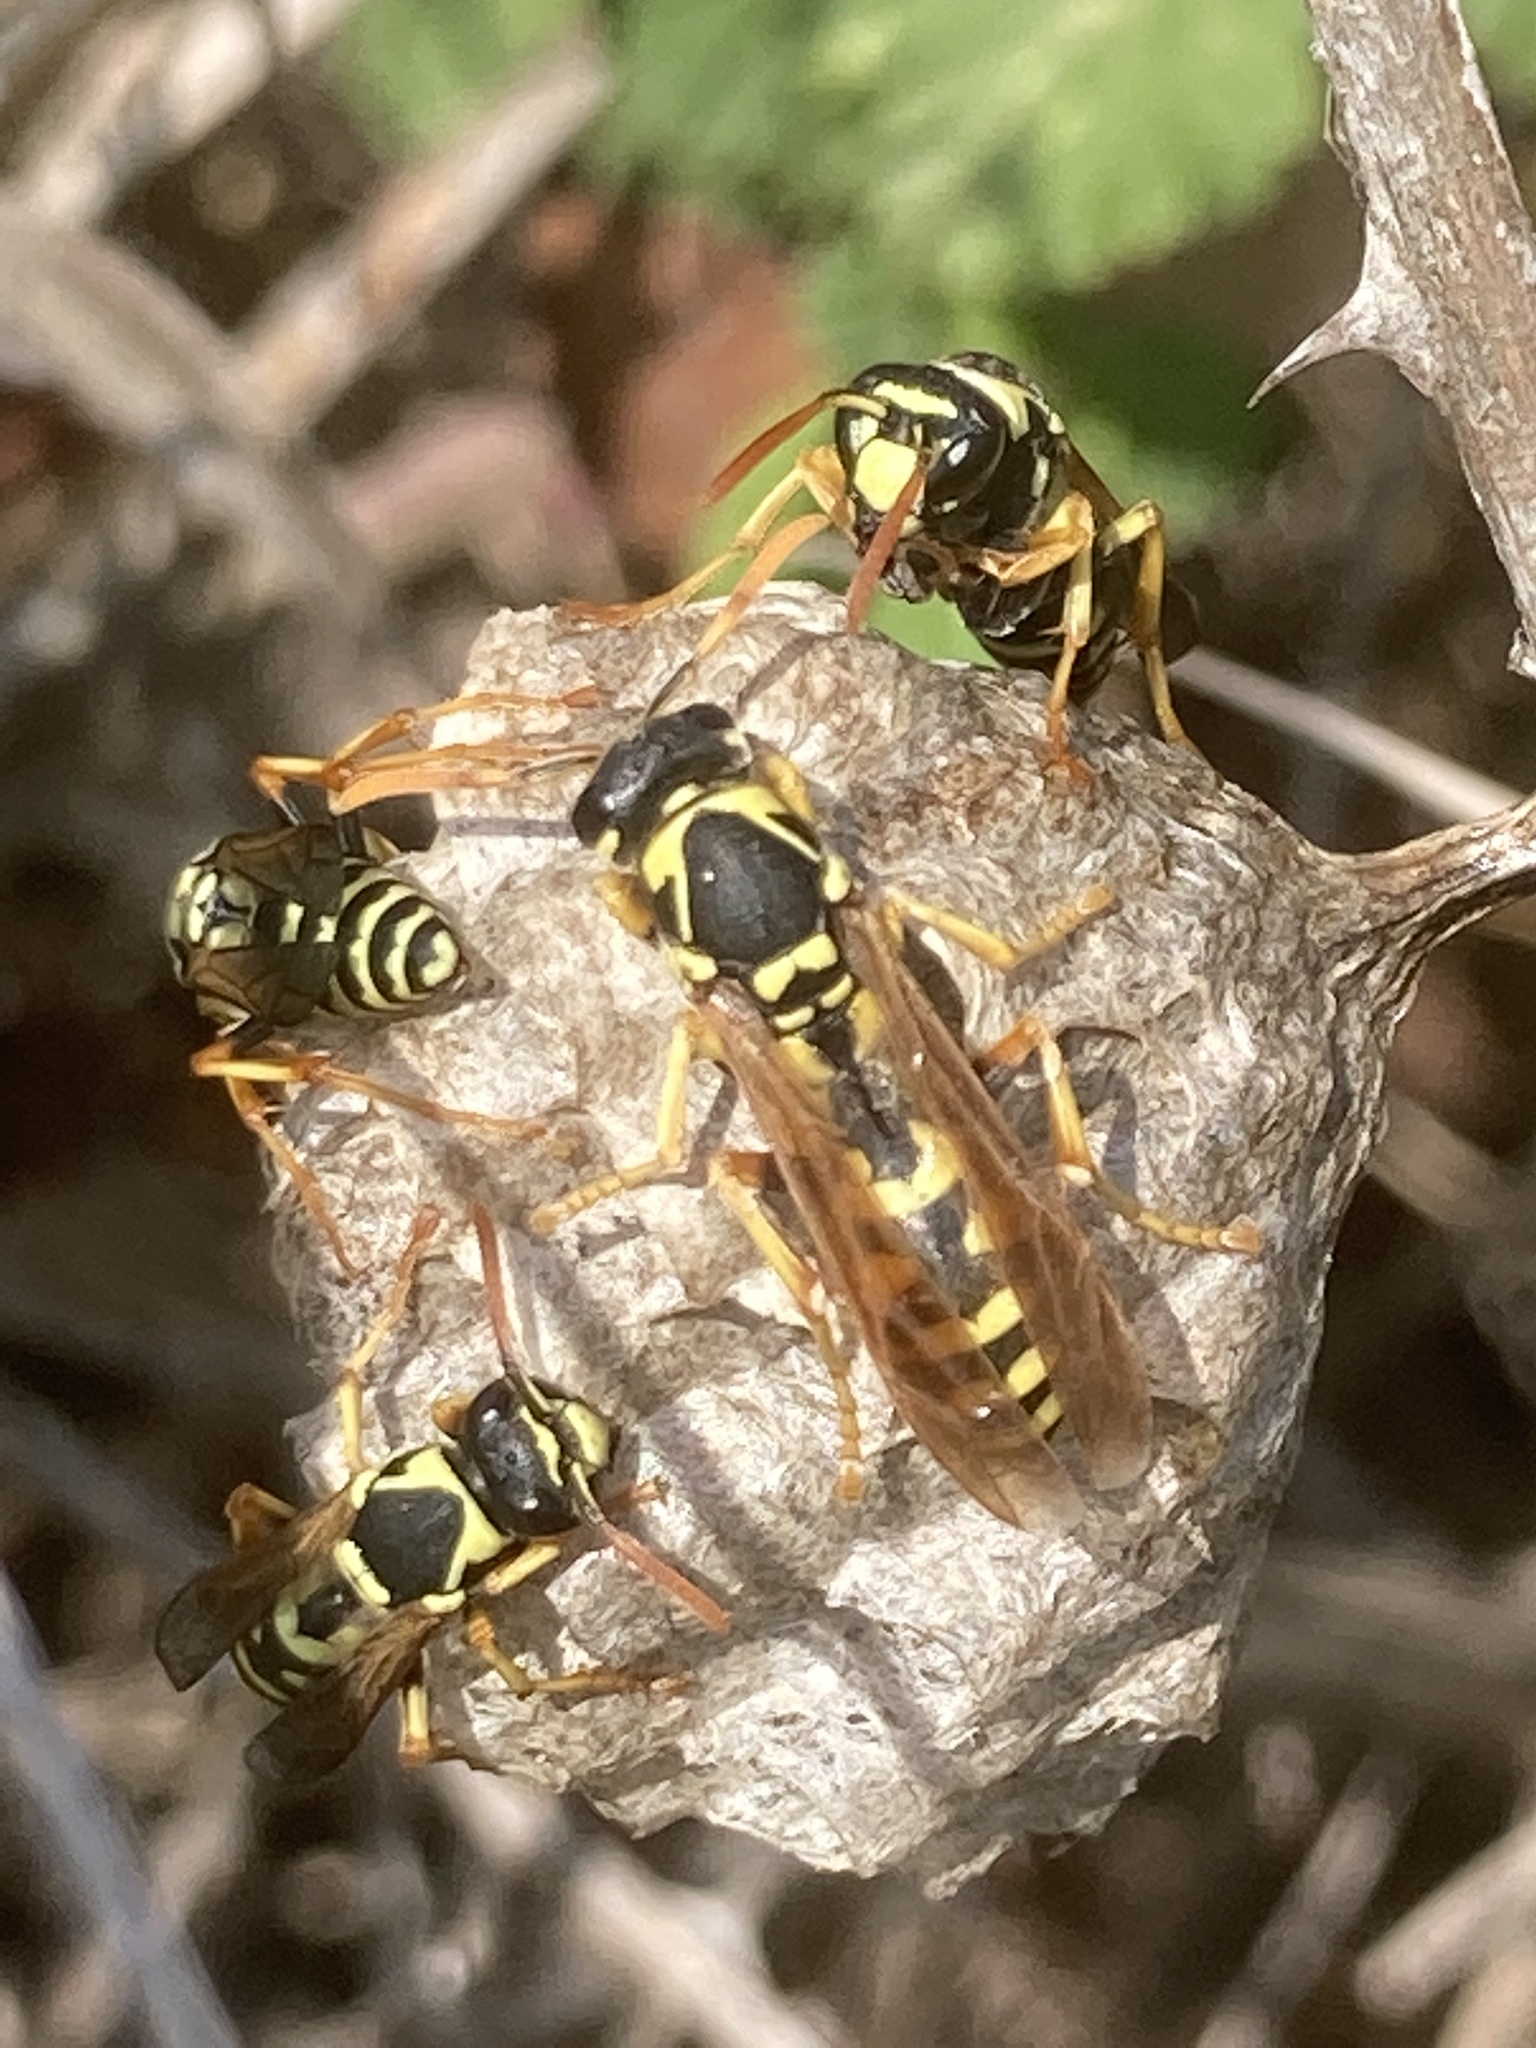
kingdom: Animalia
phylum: Arthropoda
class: Insecta
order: Hymenoptera
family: Eumenidae
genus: Polistes
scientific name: Polistes gallicus
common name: Paper wasp
